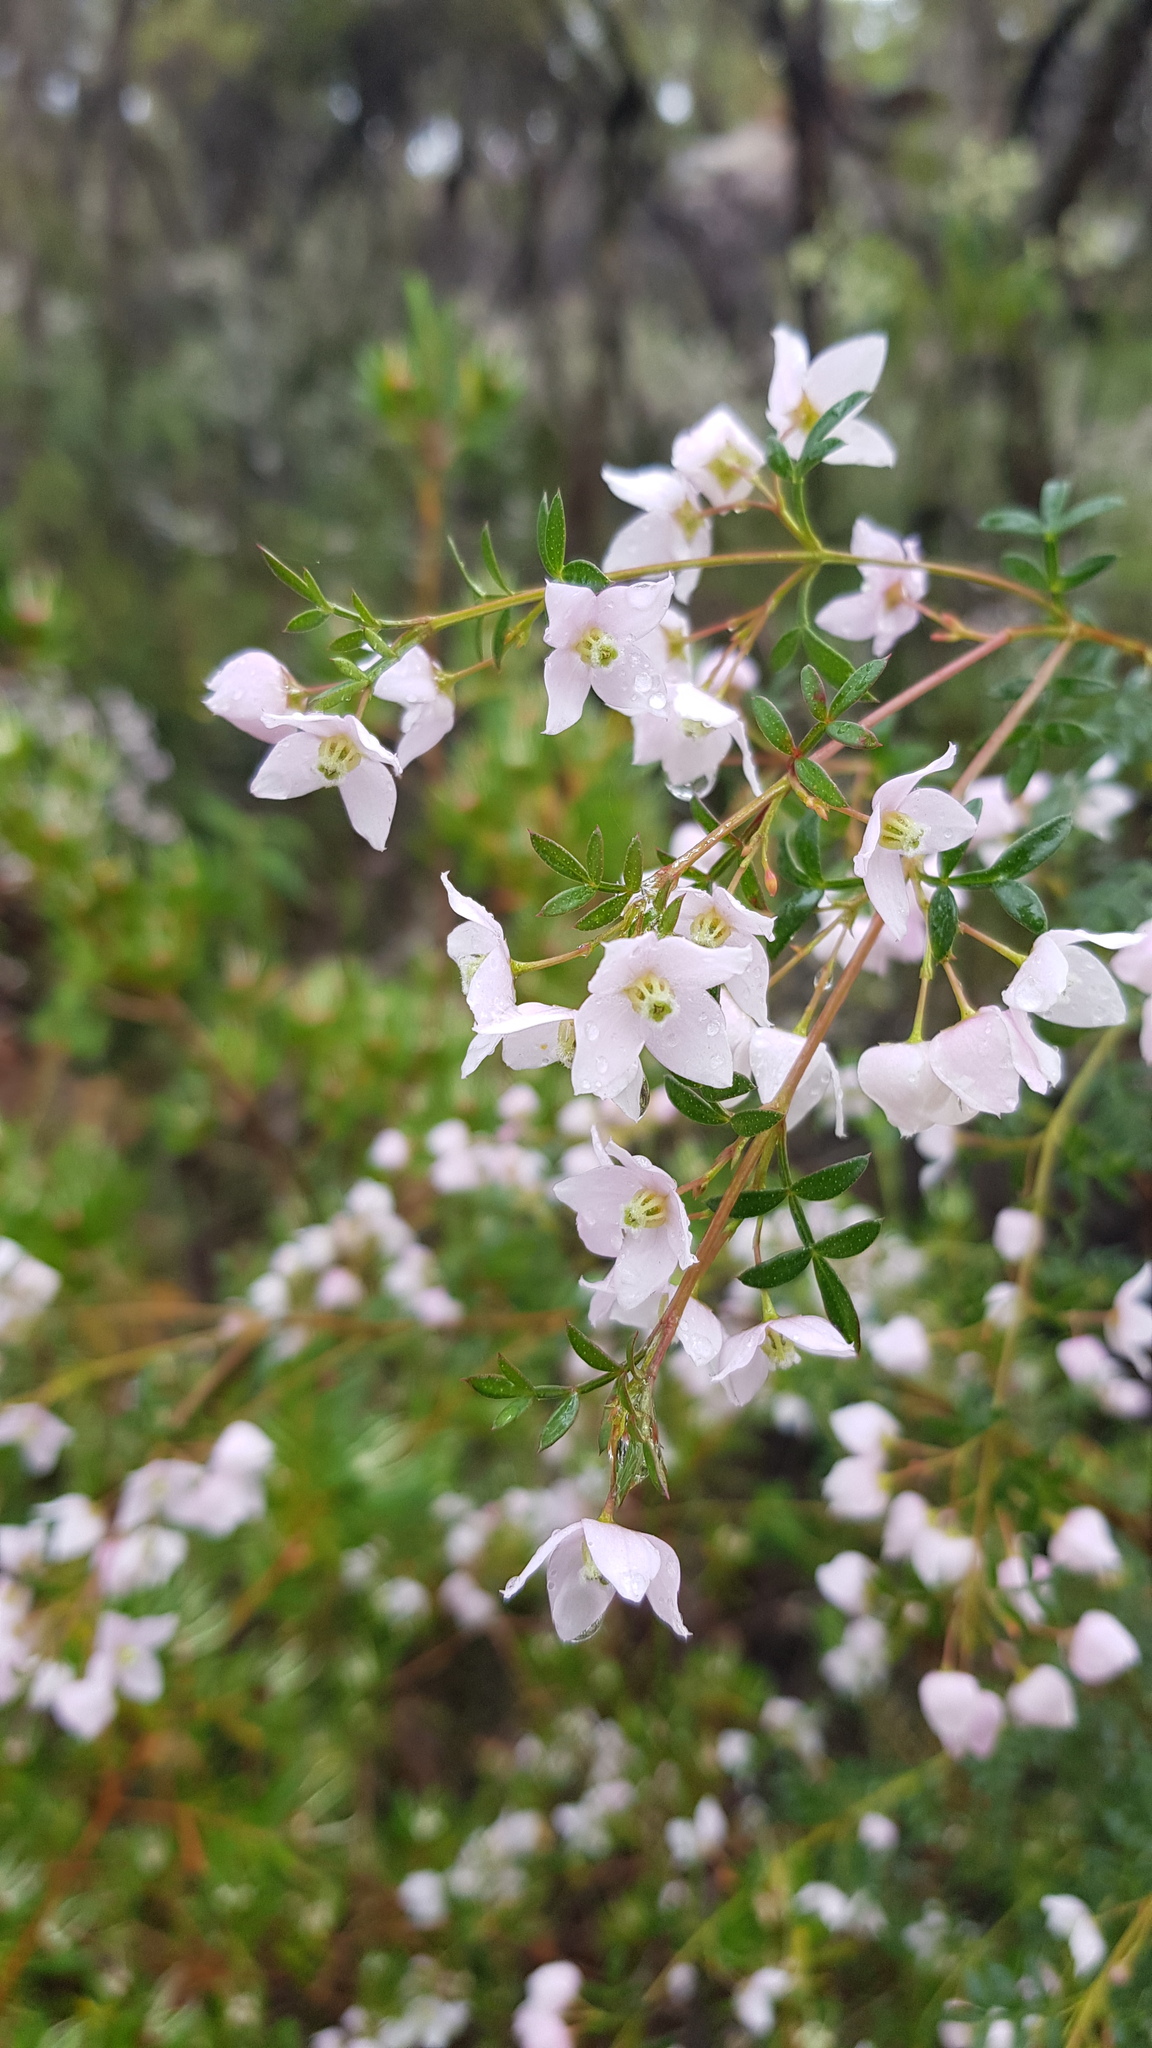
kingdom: Plantae
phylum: Tracheophyta
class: Magnoliopsida
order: Sapindales
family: Rutaceae
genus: Boronia
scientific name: Boronia floribunda
